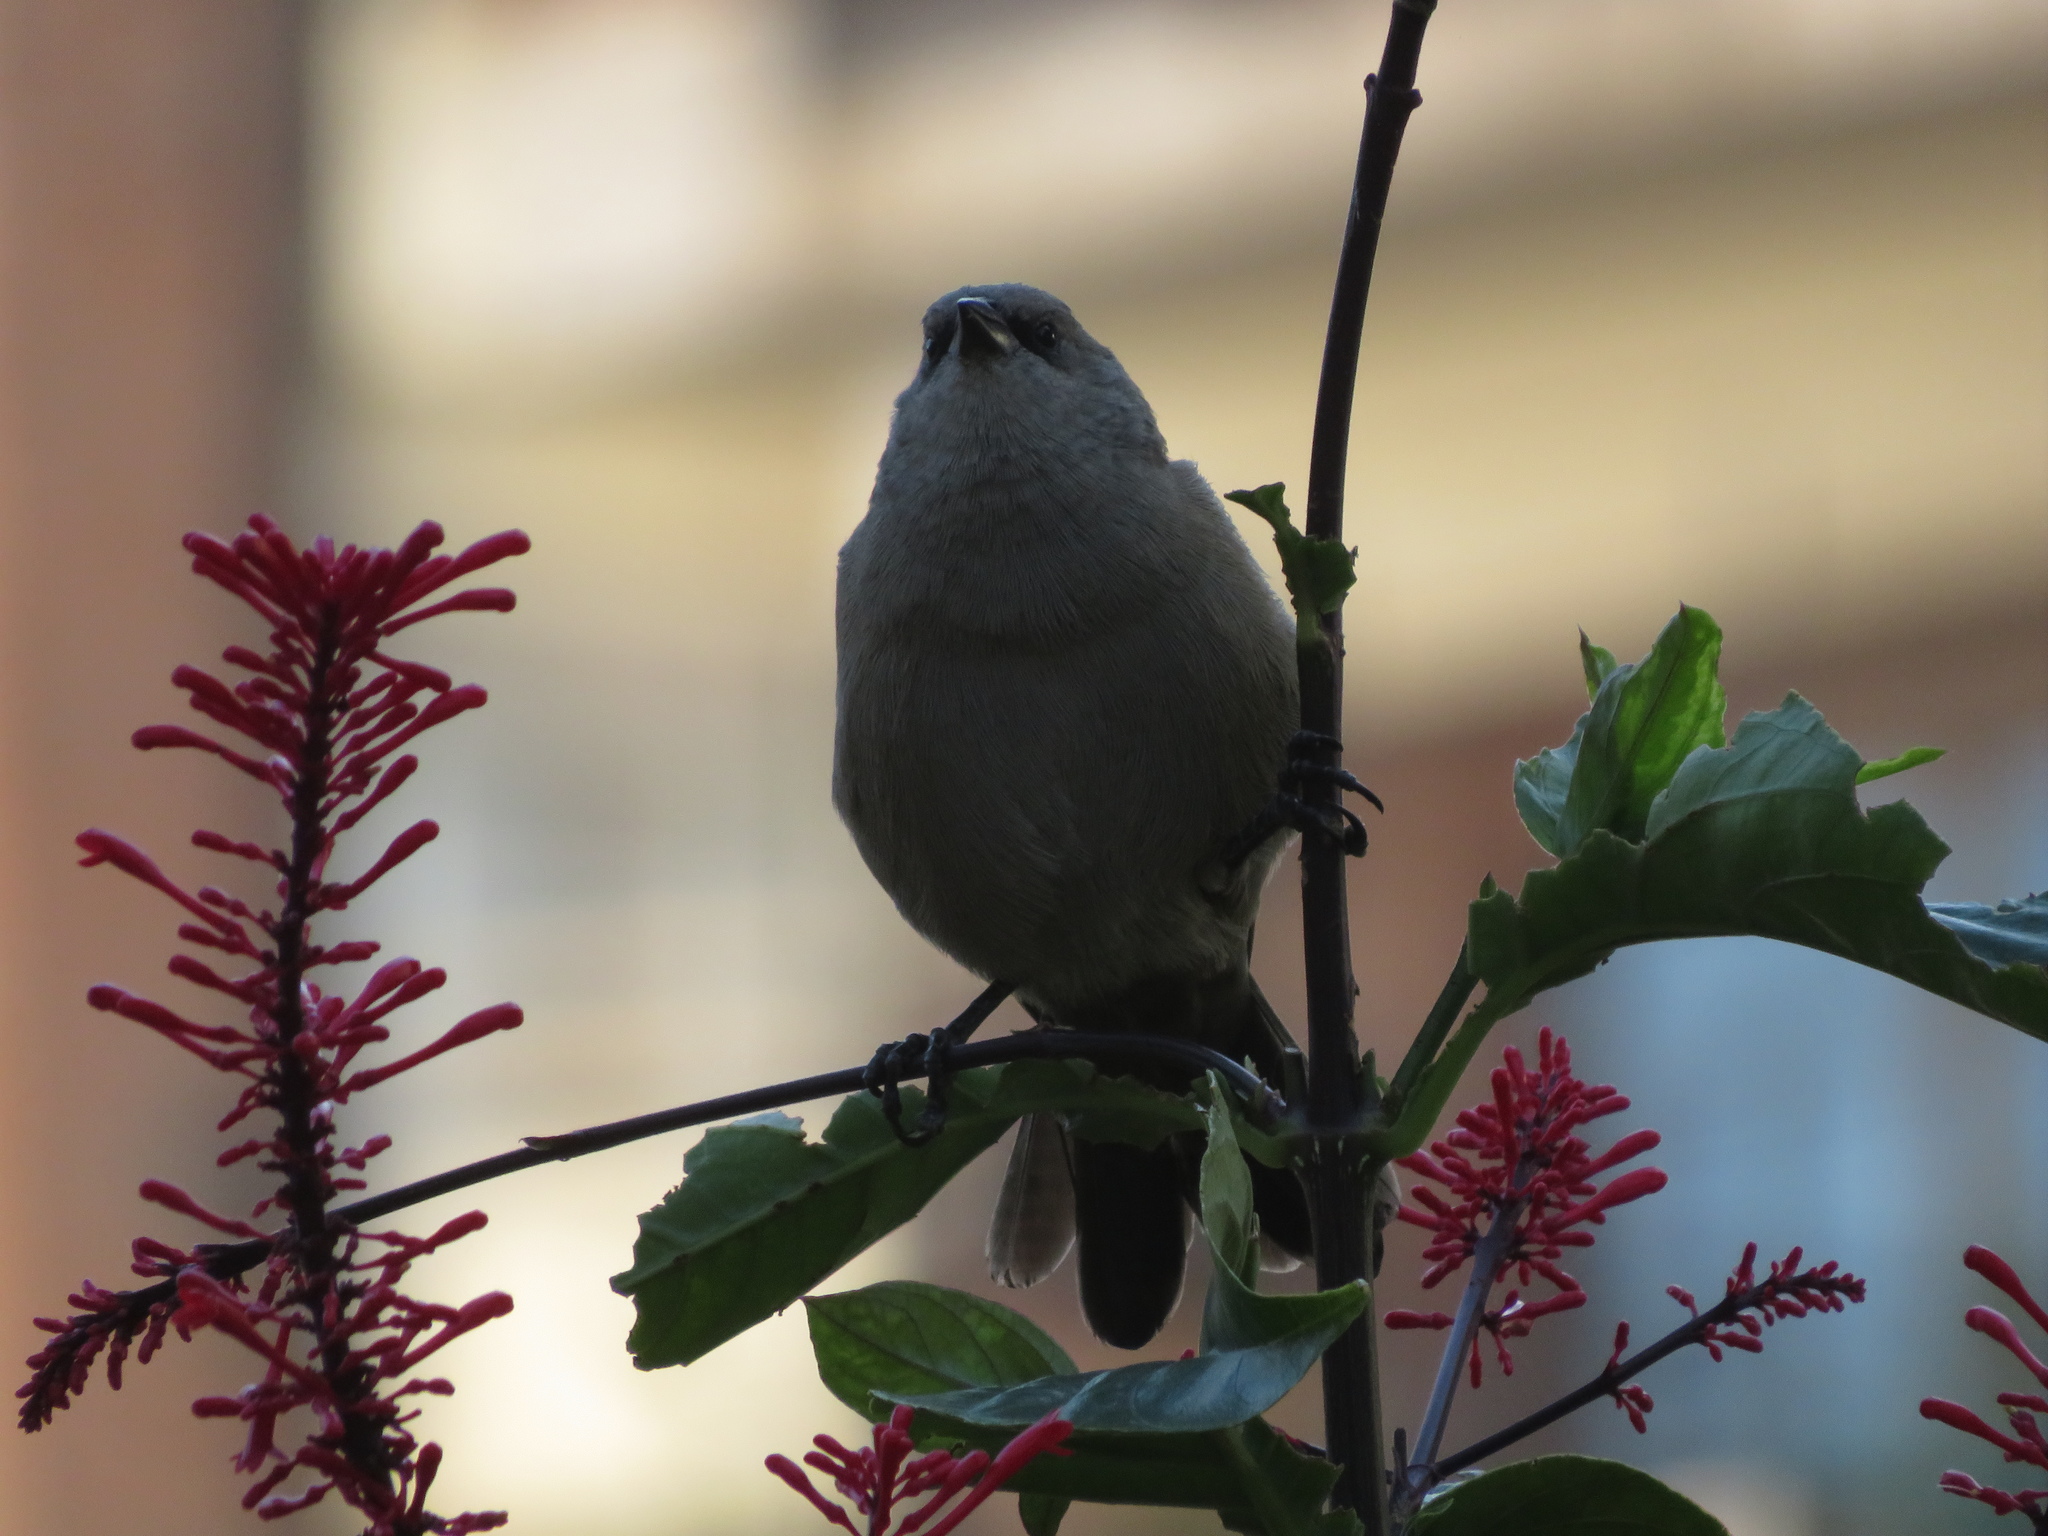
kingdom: Animalia
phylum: Chordata
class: Aves
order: Passeriformes
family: Icteridae
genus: Agelaioides
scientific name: Agelaioides badius
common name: Baywing
